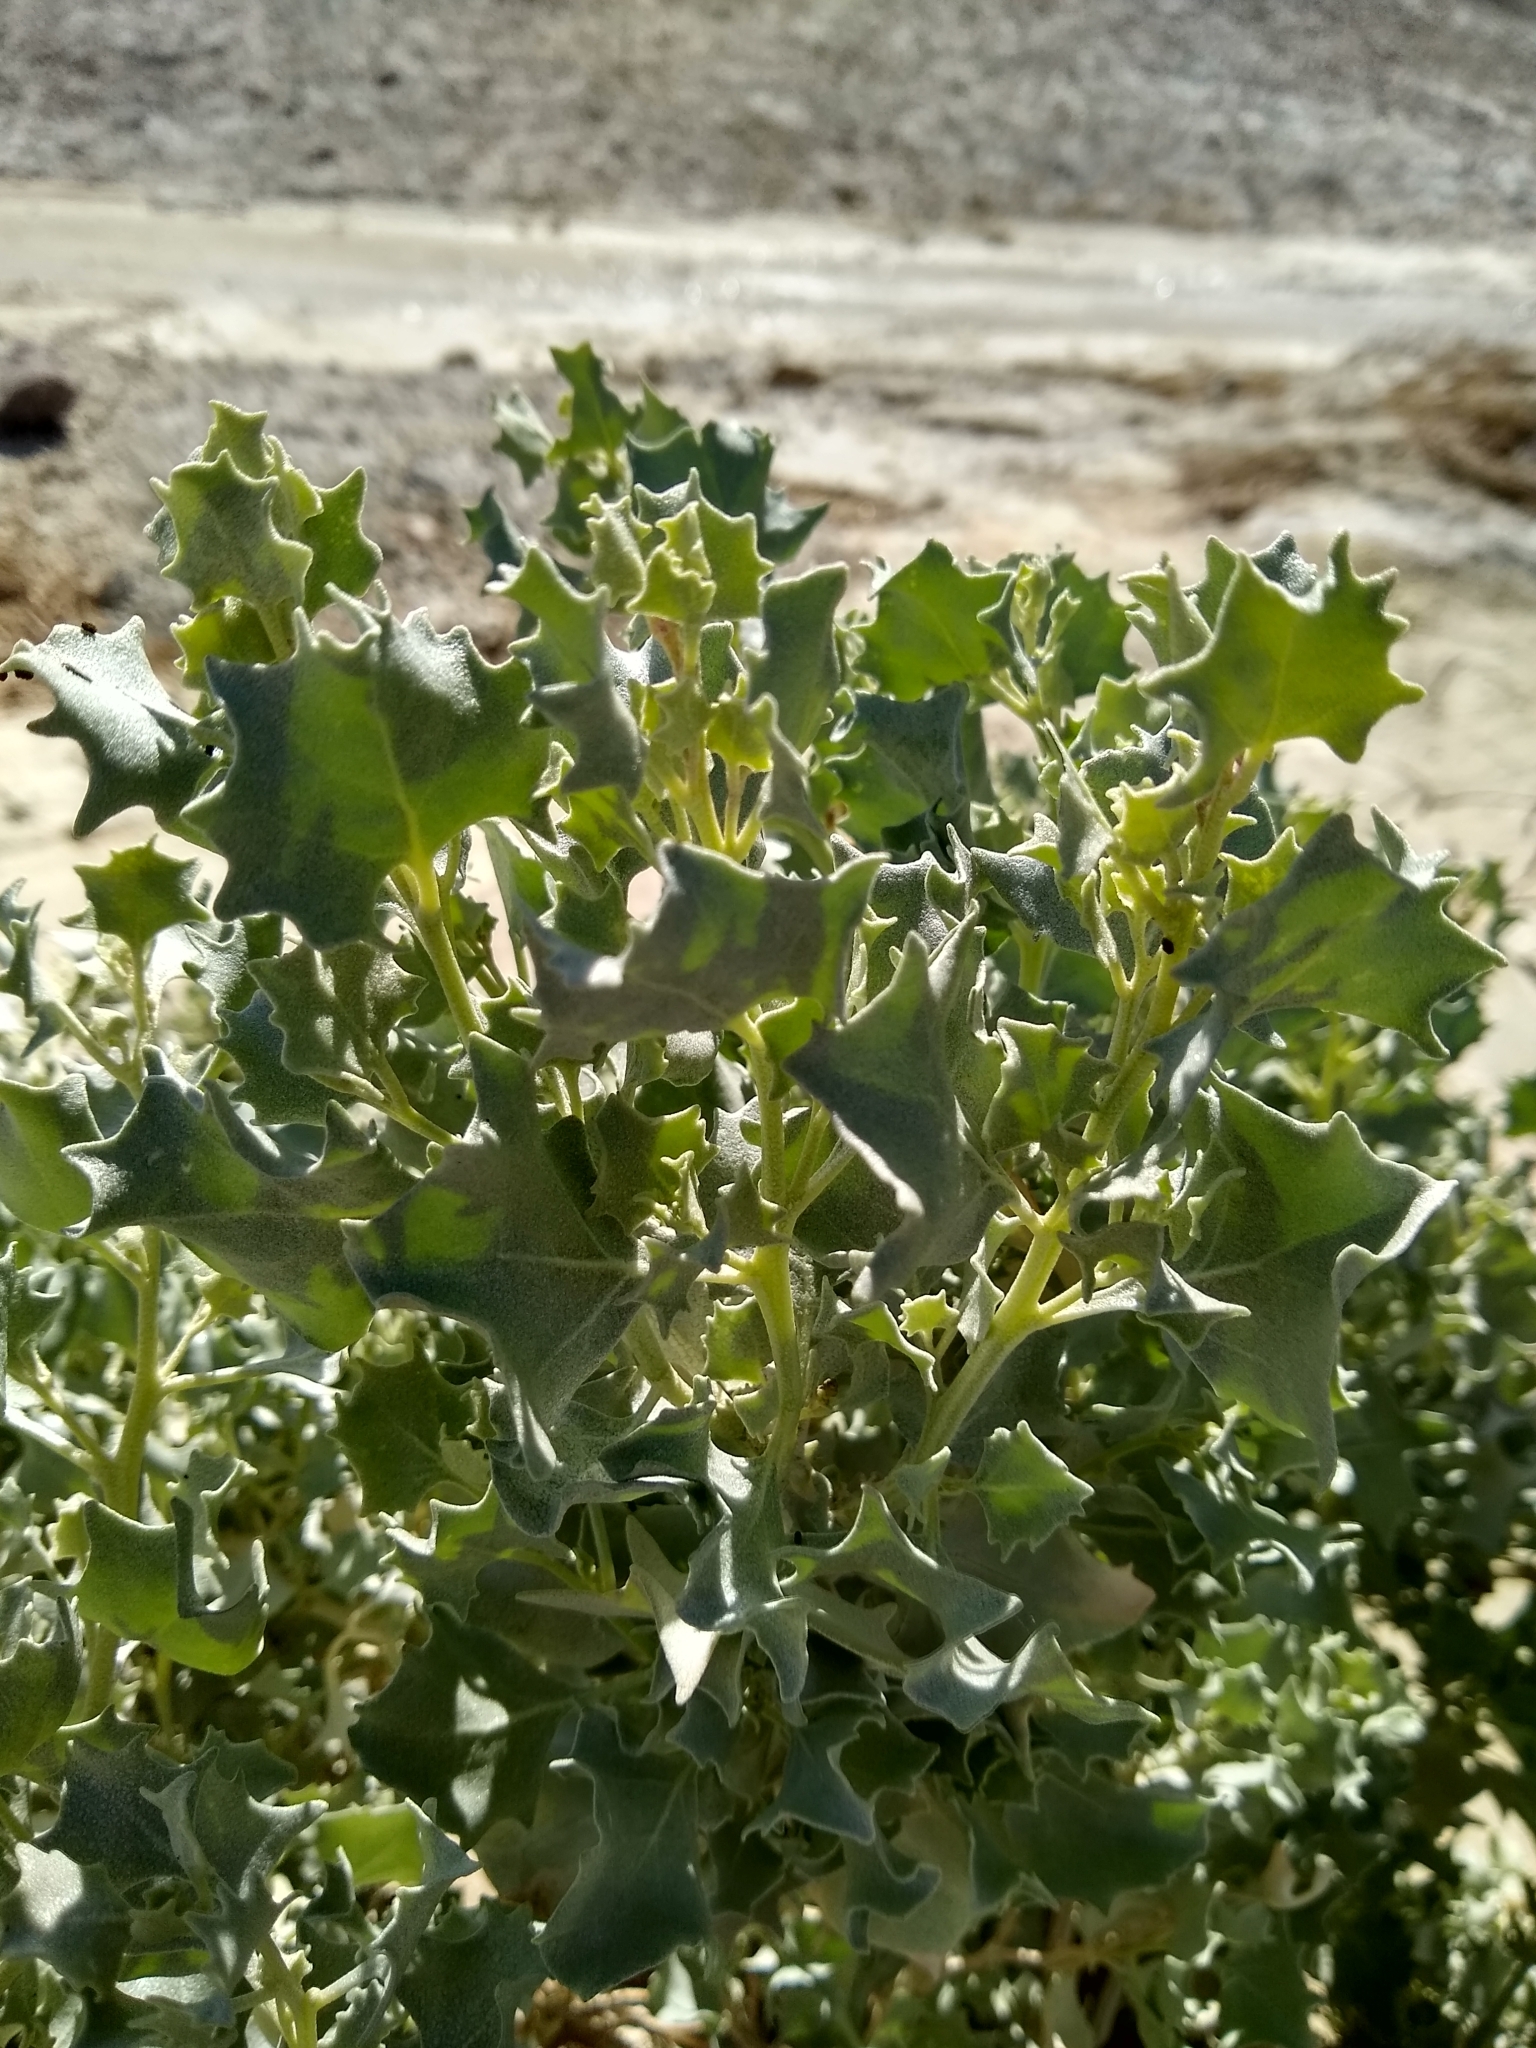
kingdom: Plantae
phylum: Tracheophyta
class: Magnoliopsida
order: Caryophyllales
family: Amaranthaceae
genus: Atriplex
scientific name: Atriplex hymenelytra
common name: Desert-holly
